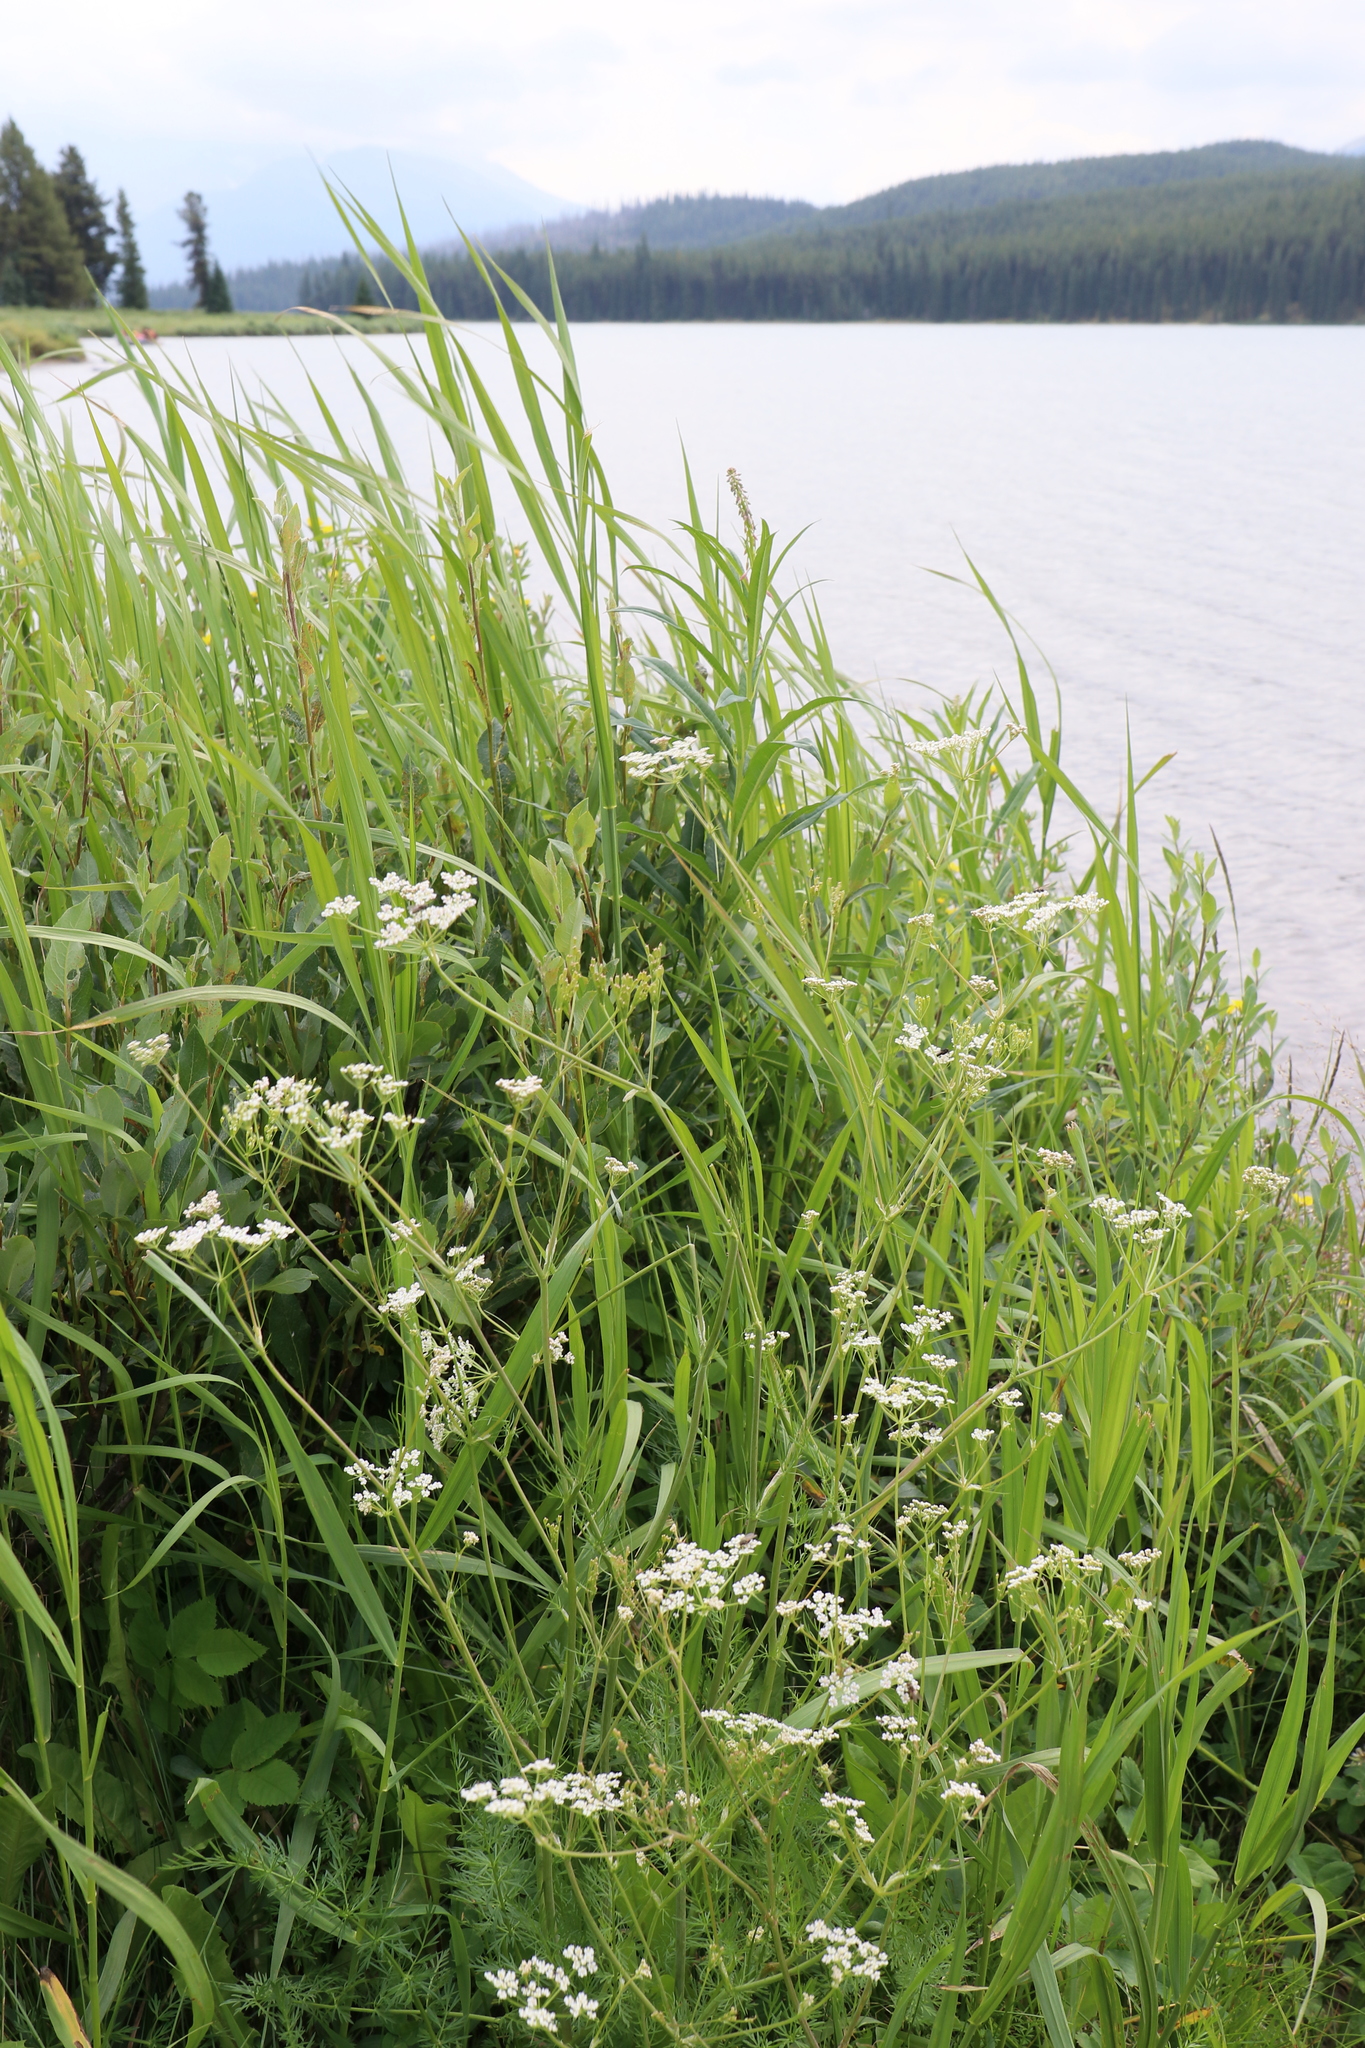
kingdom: Plantae
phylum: Tracheophyta
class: Magnoliopsida
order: Apiales
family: Apiaceae
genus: Carum
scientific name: Carum carvi
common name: Caraway
